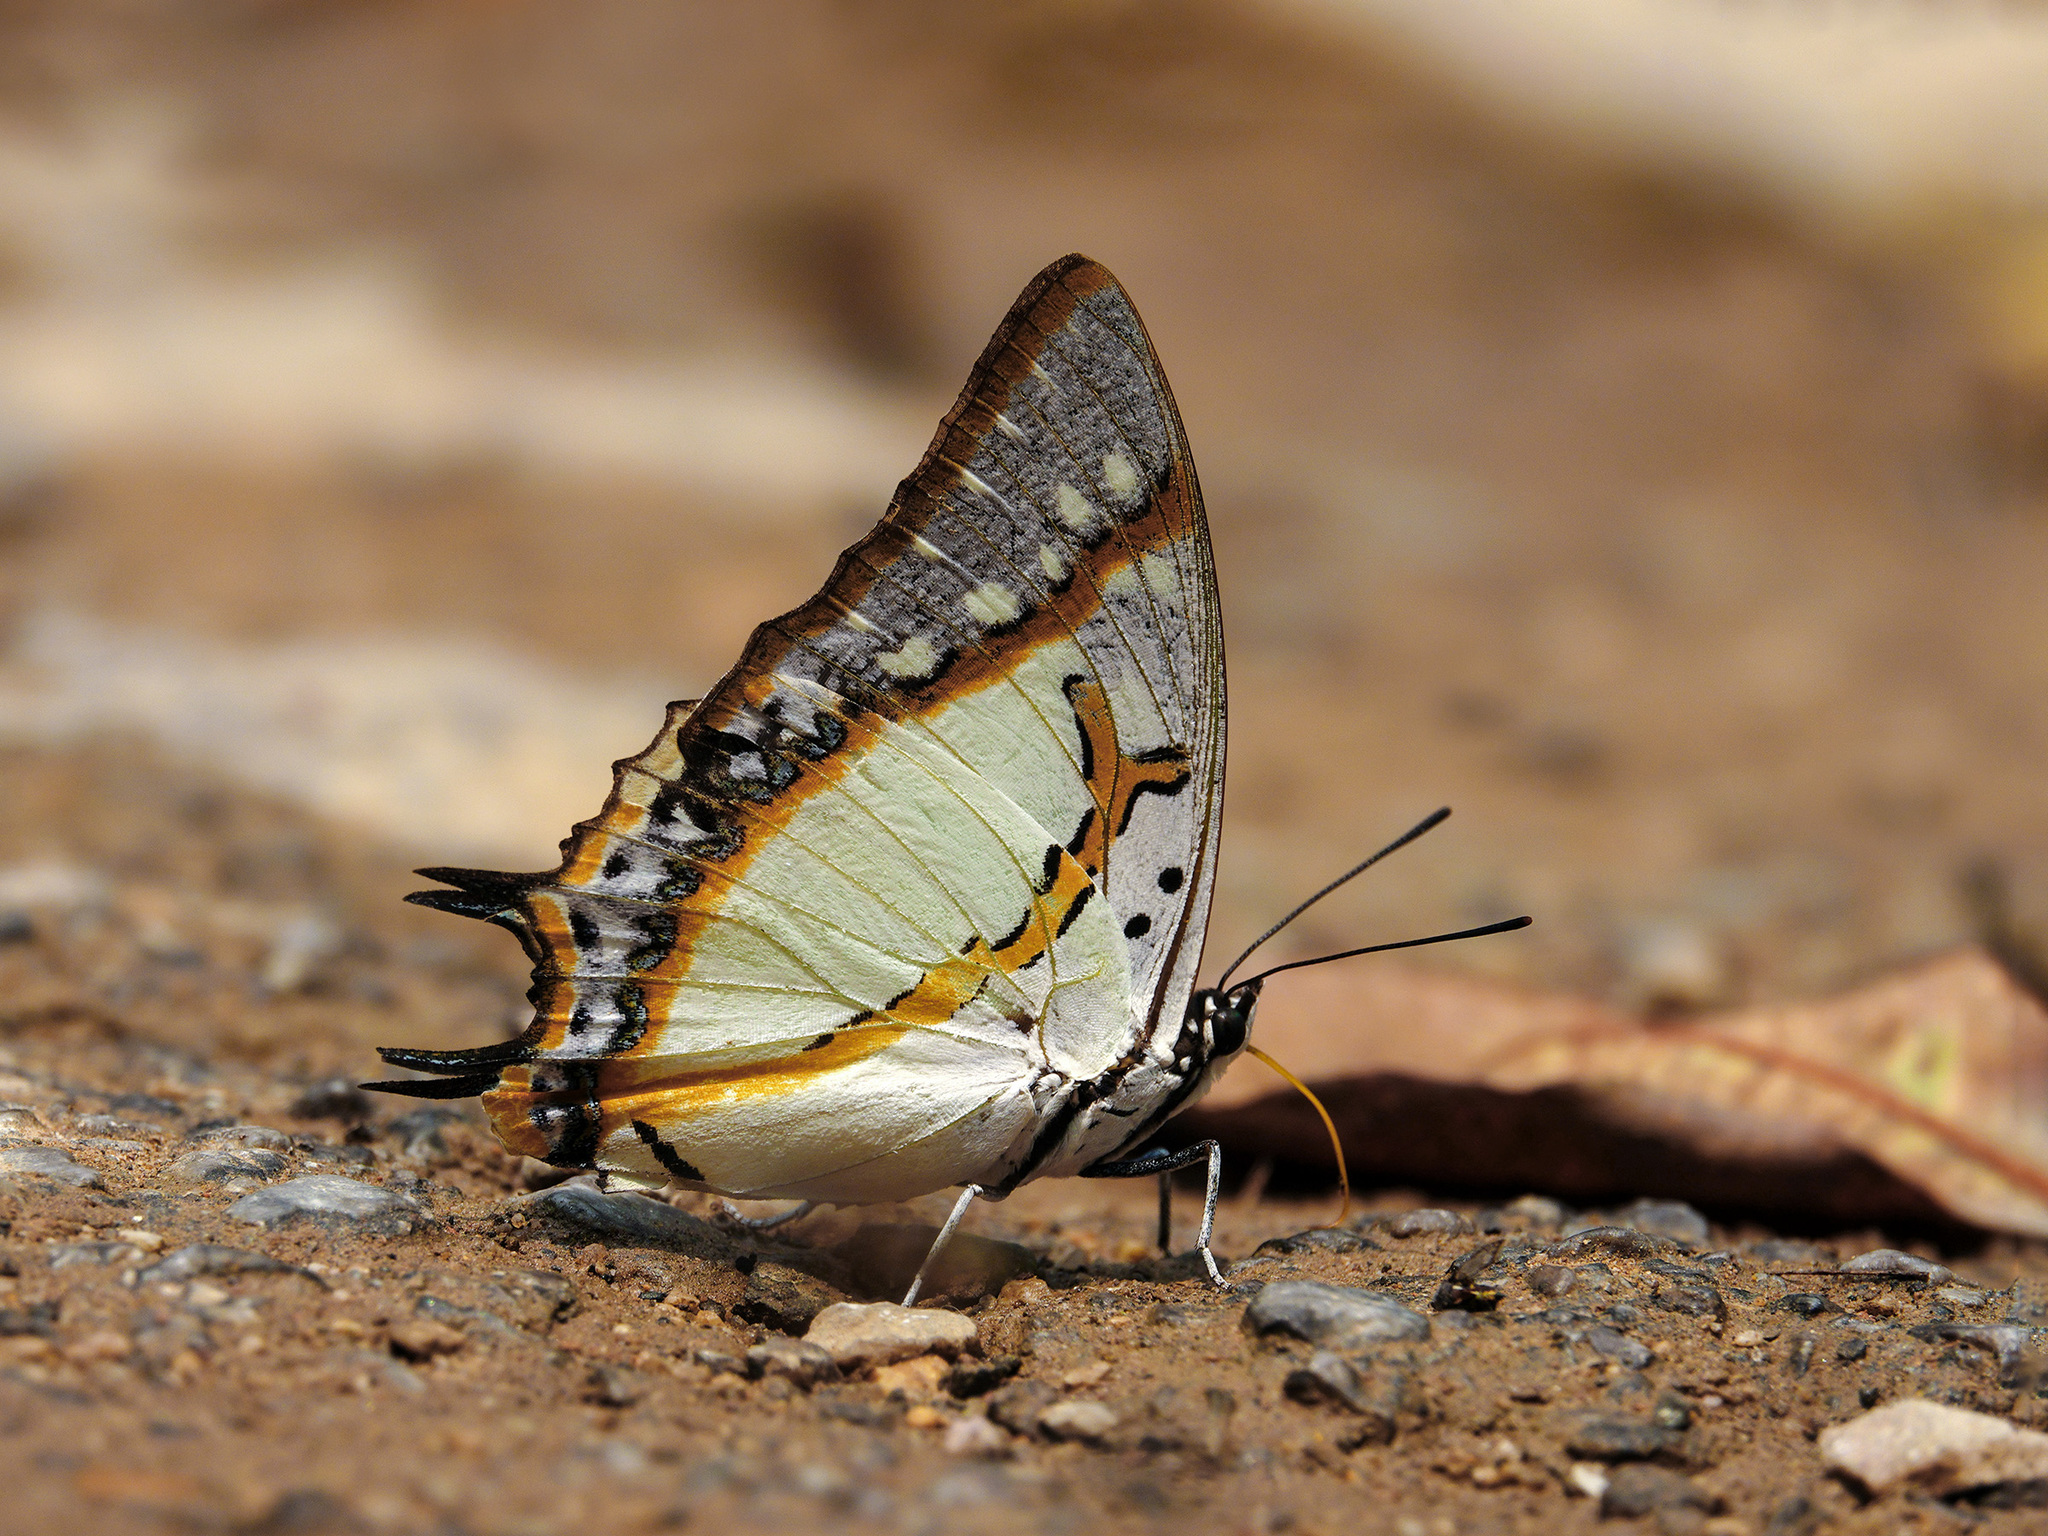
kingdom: Animalia
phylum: Arthropoda
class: Insecta
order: Lepidoptera
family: Nymphalidae
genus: Polyura
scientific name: Polyura eudamippus
